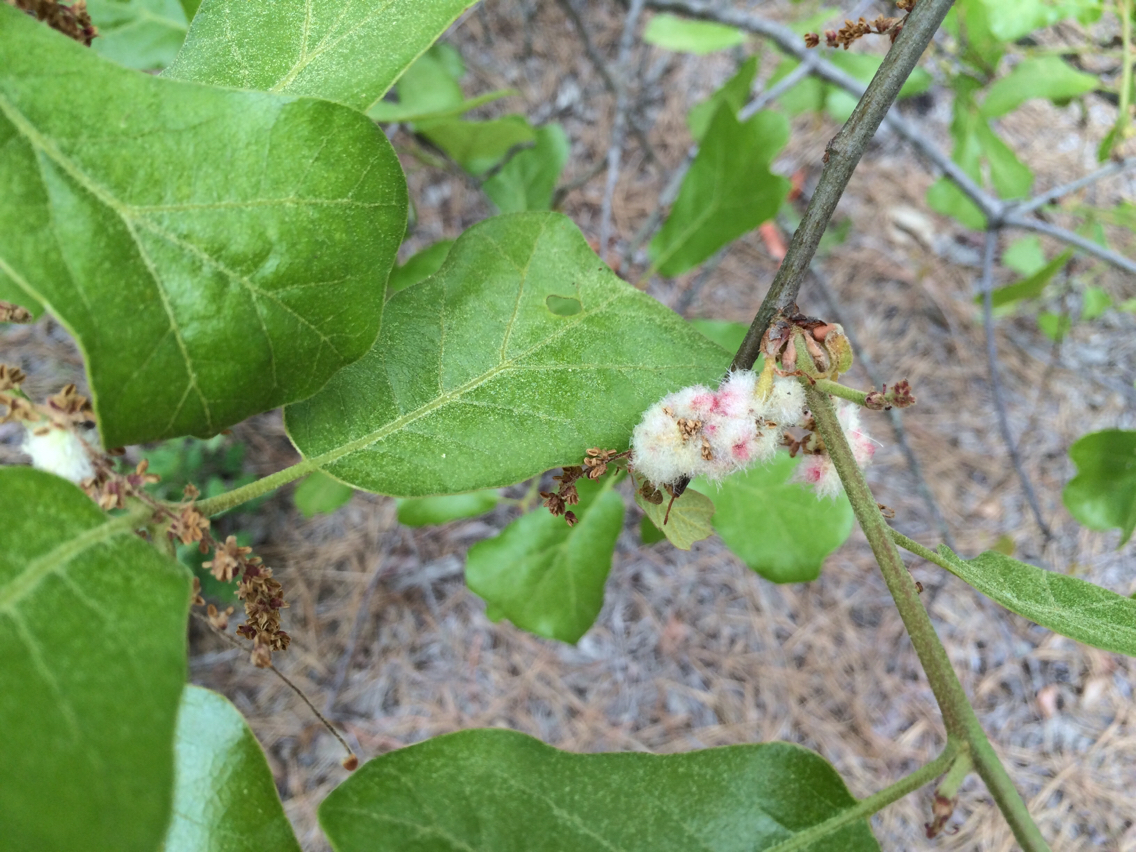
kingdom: Plantae
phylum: Tracheophyta
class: Magnoliopsida
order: Fagales
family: Fagaceae
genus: Quercus
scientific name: Quercus marilandica
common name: Blackjack oak
